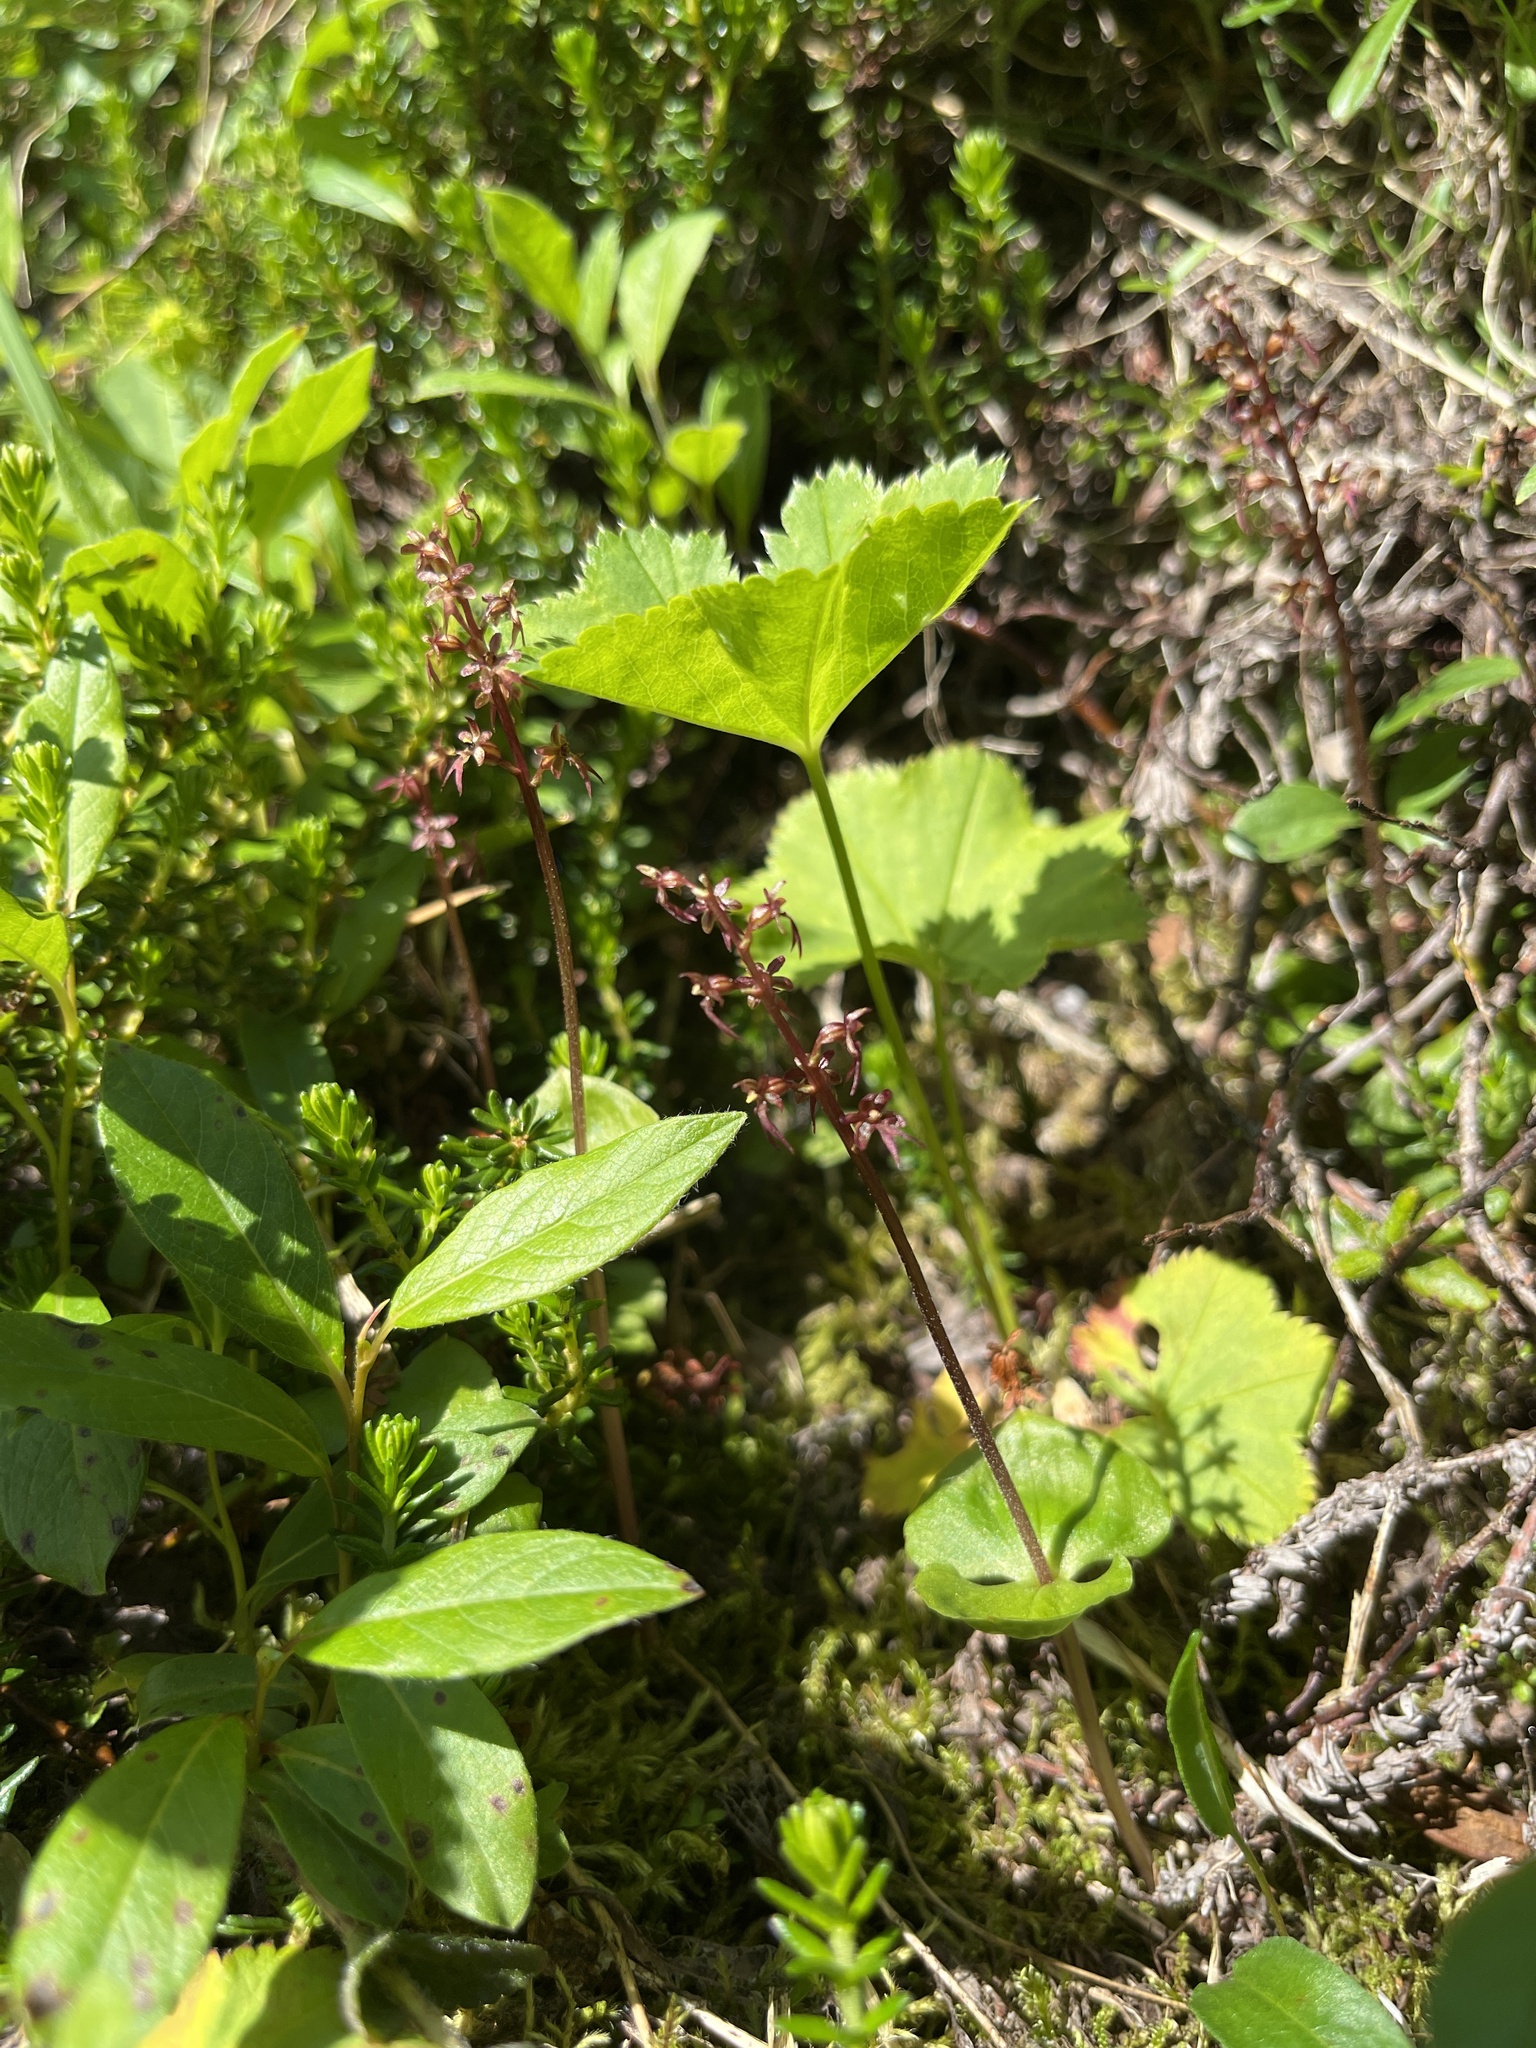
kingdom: Plantae
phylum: Tracheophyta
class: Liliopsida
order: Asparagales
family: Orchidaceae
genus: Neottia
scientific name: Neottia cordata
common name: Lesser twayblade
